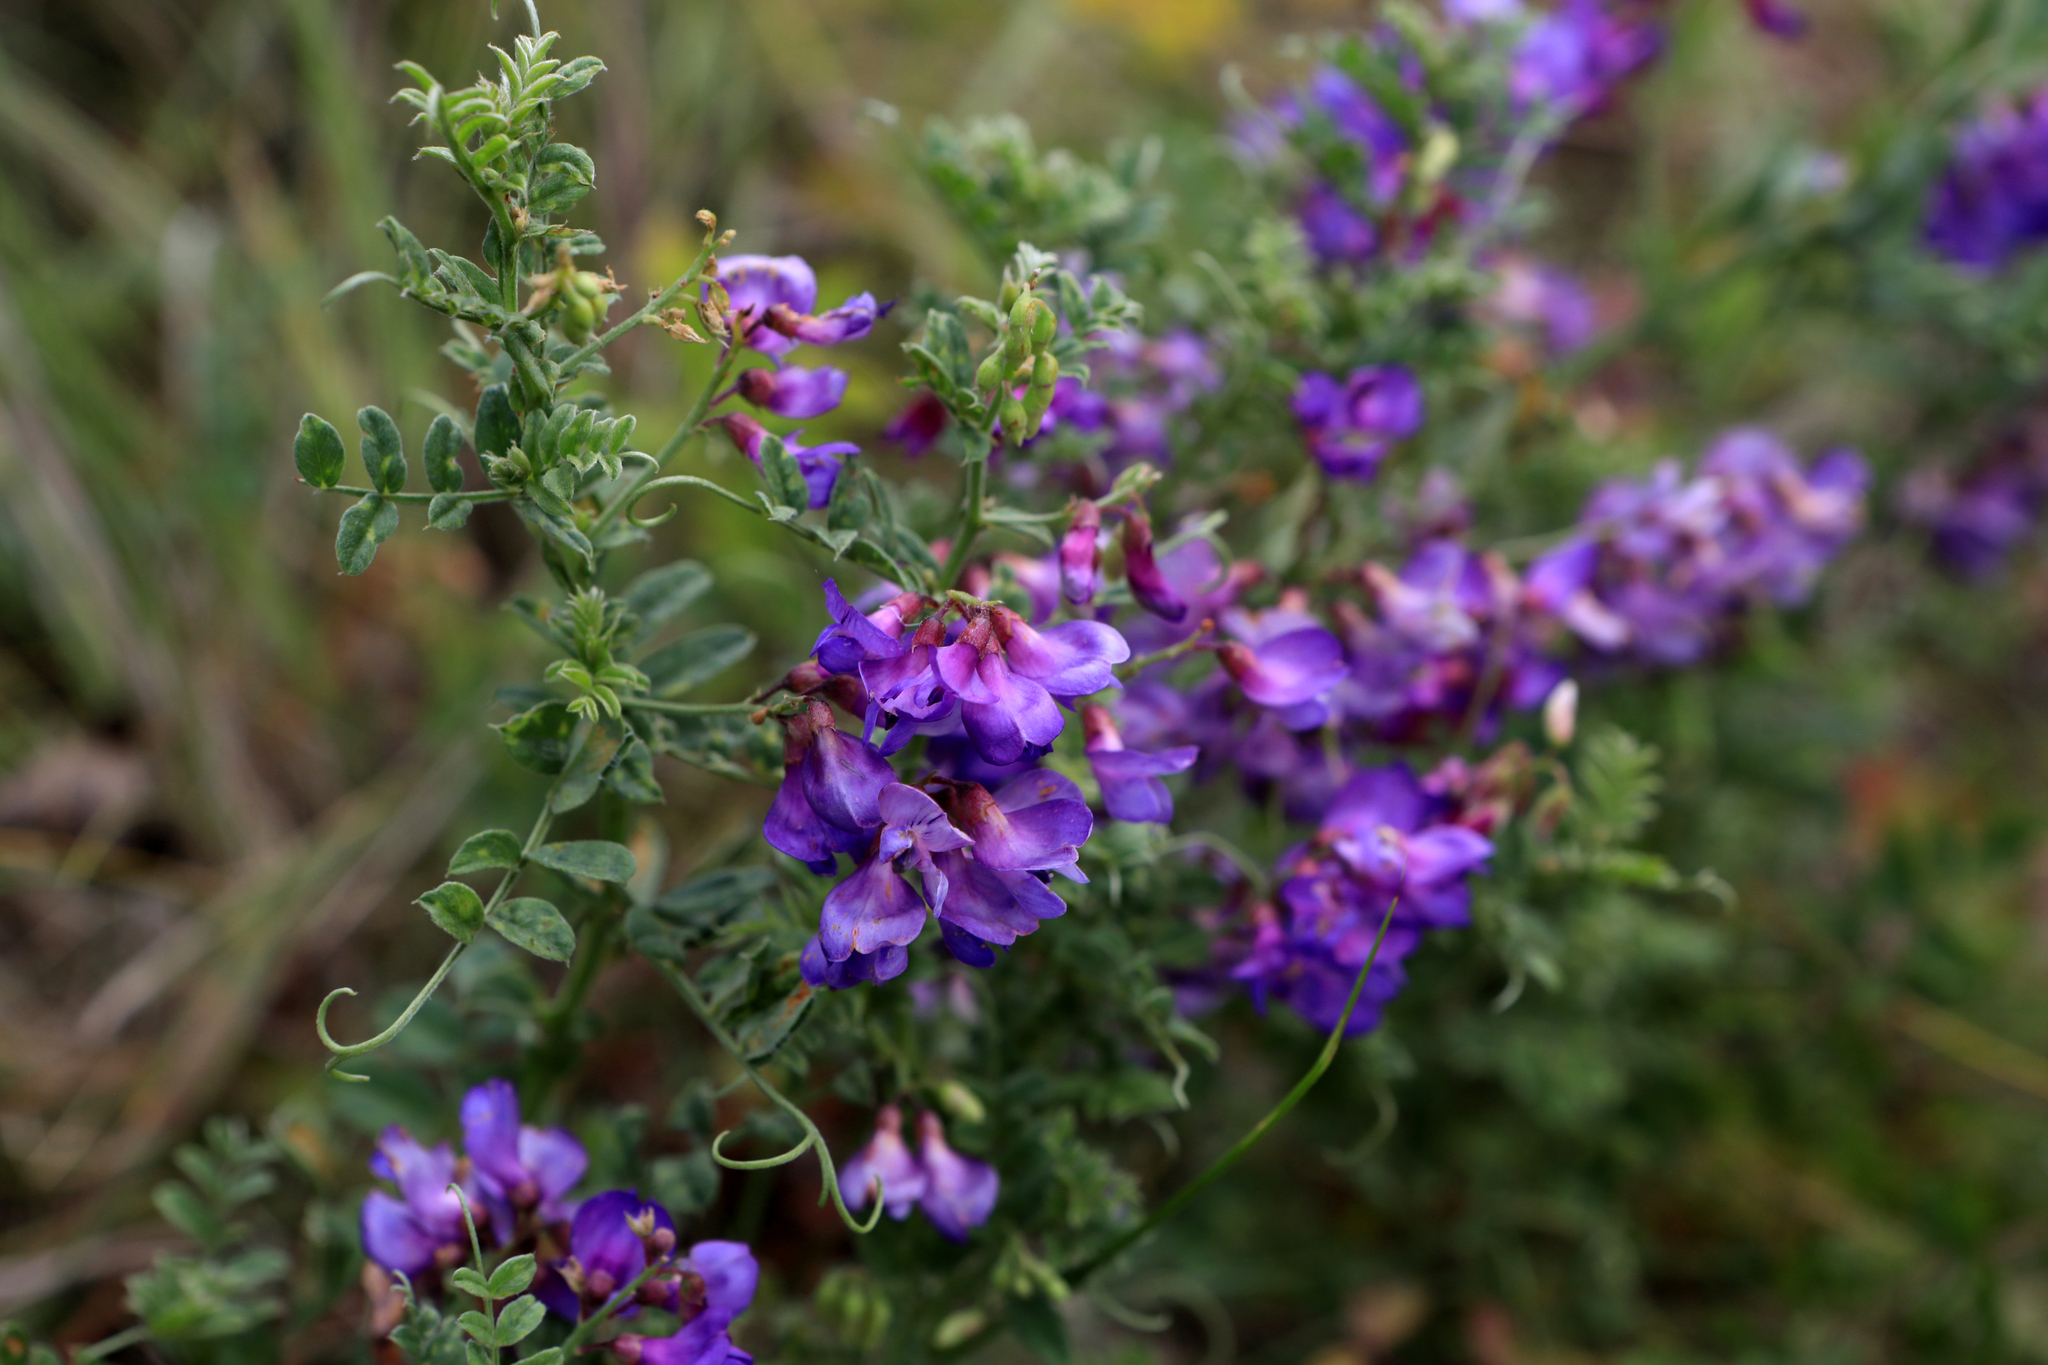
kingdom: Plantae
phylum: Tracheophyta
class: Magnoliopsida
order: Fabales
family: Fabaceae
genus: Vicia
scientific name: Vicia amoena
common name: Cheder ebs
